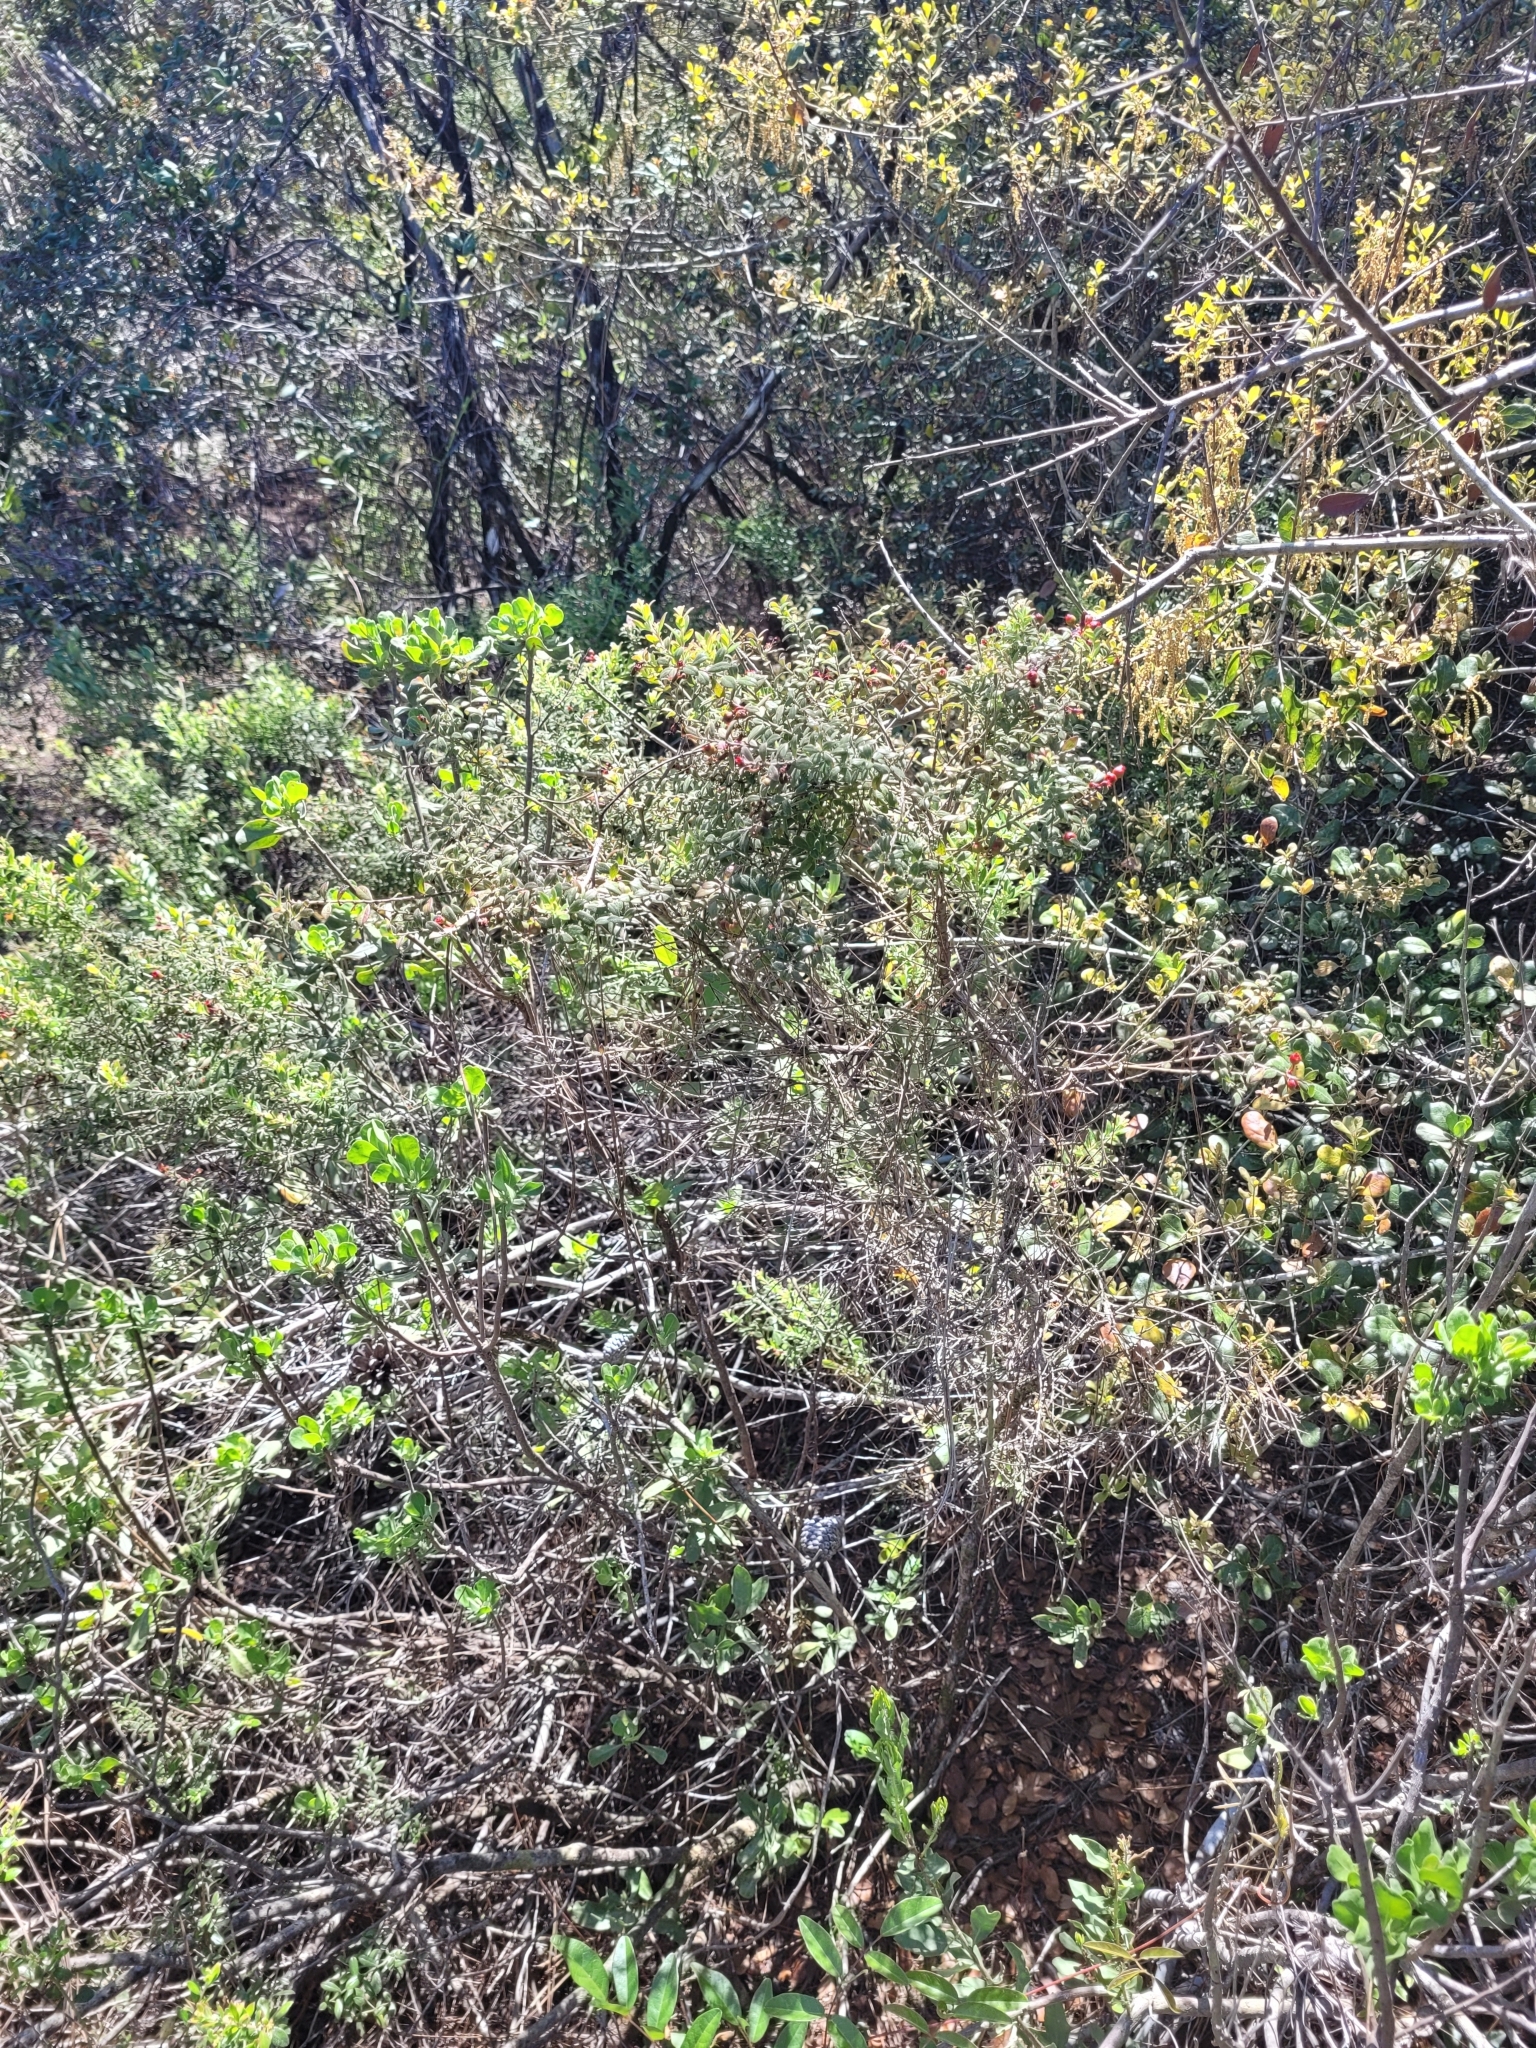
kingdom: Plantae
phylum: Tracheophyta
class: Magnoliopsida
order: Ericales
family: Ericaceae
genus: Vaccinium
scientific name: Vaccinium myrsinites
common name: Evergreen blueberry
